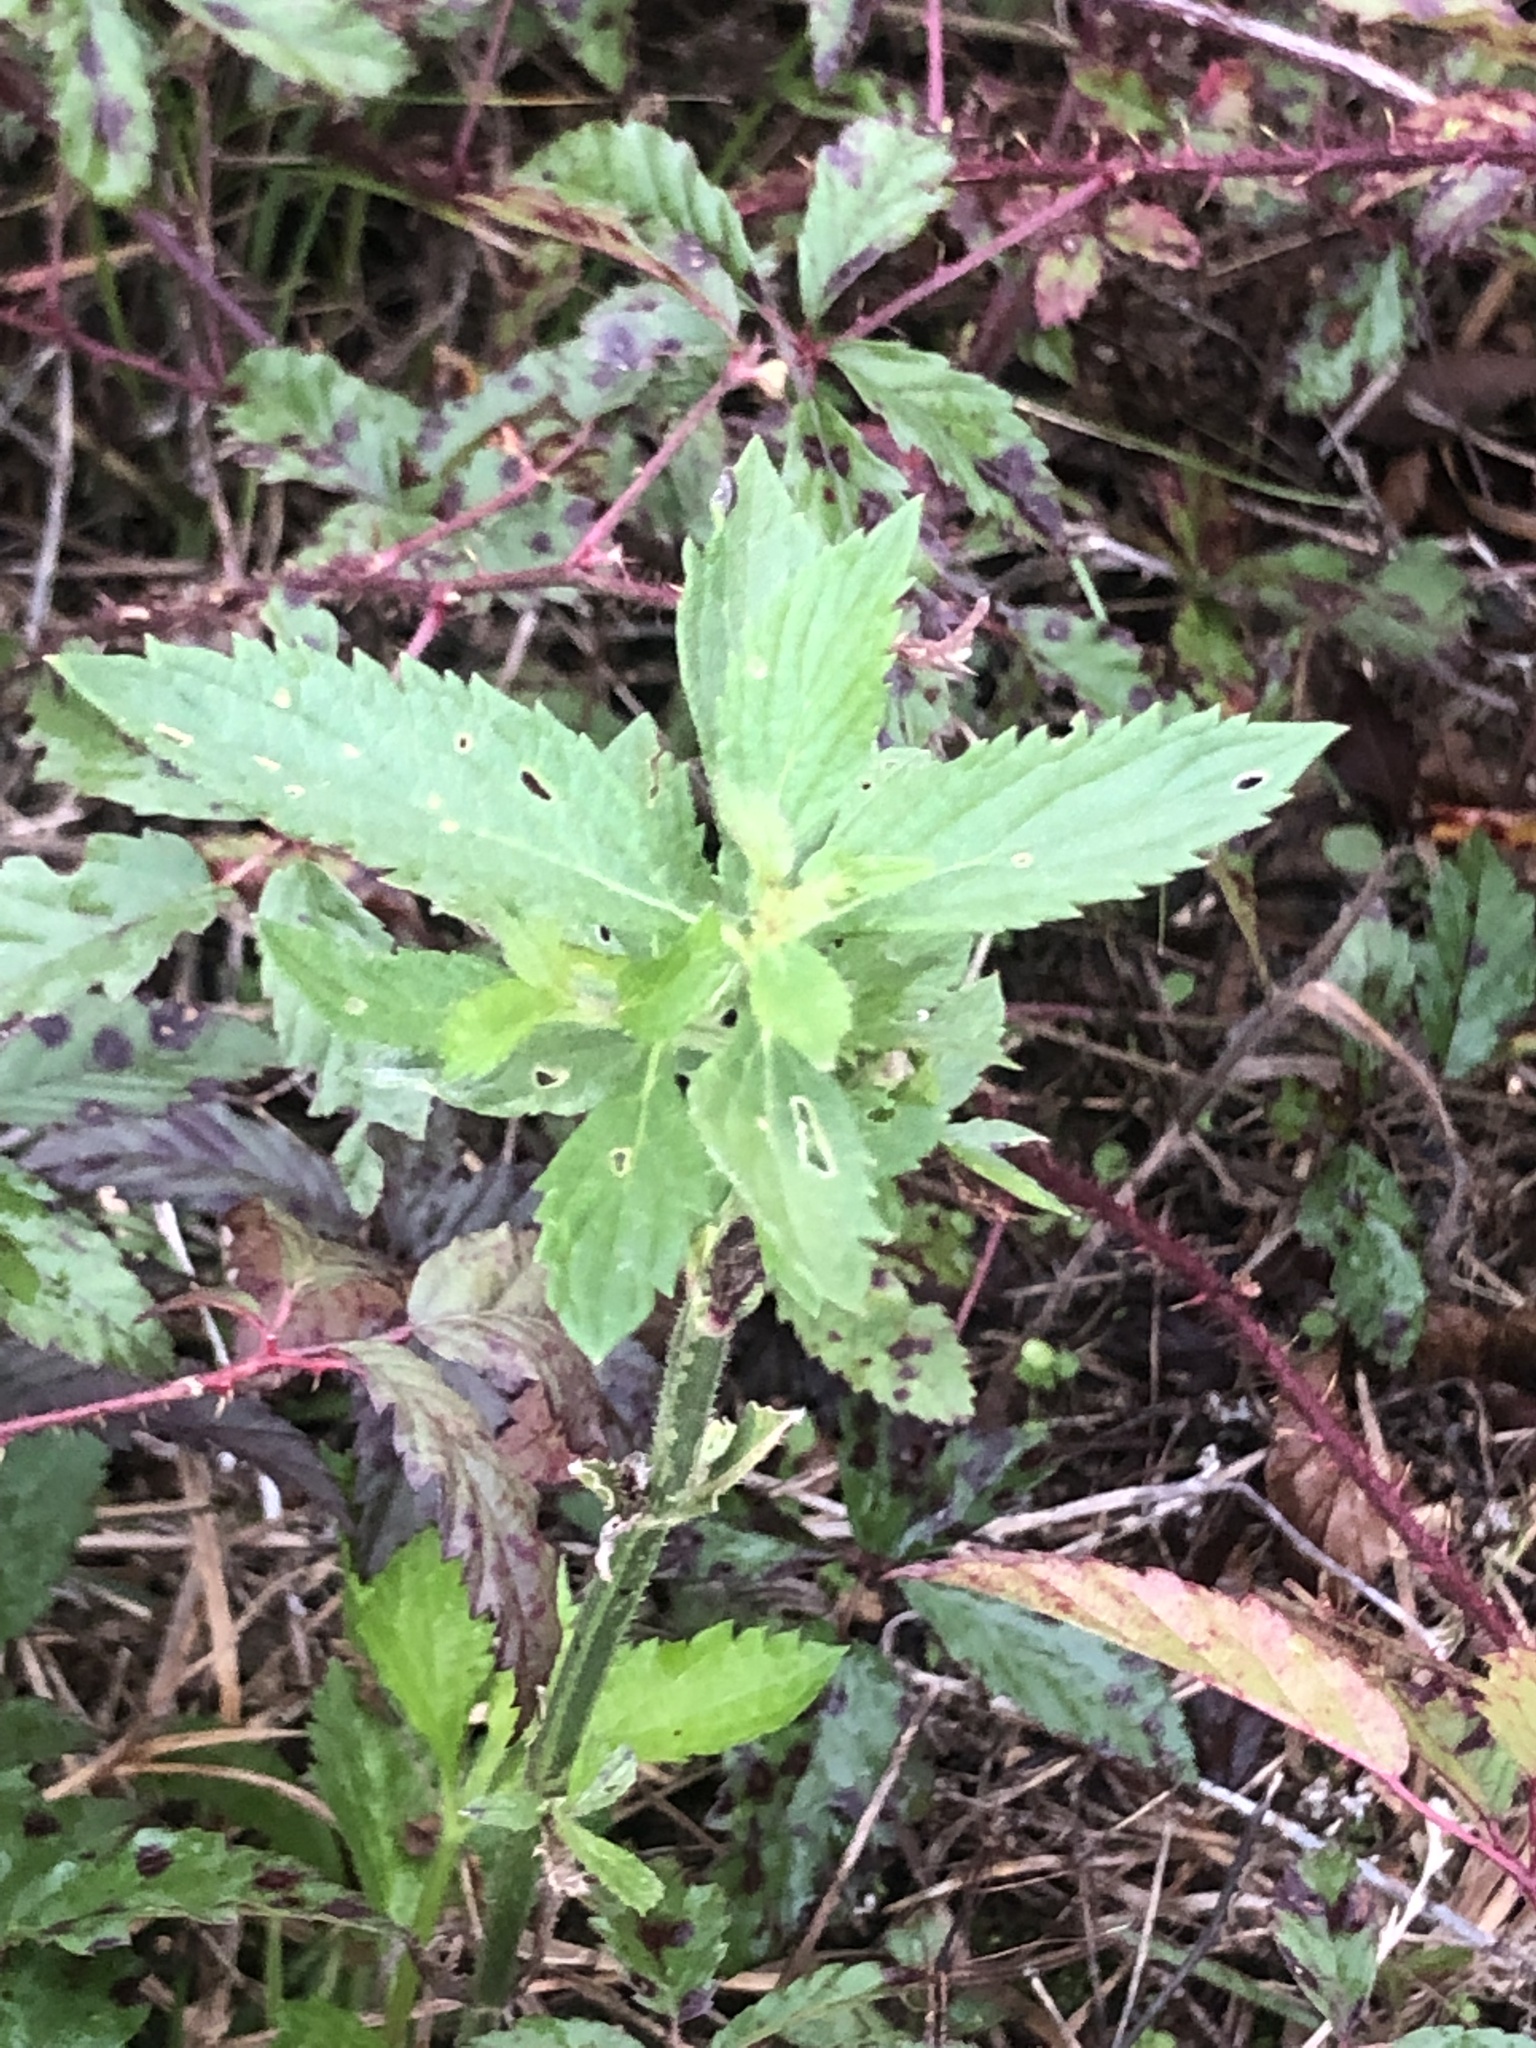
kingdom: Plantae
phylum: Tracheophyta
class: Magnoliopsida
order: Lamiales
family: Verbenaceae
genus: Verbena
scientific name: Verbena brasiliensis
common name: Brazilian vervain
